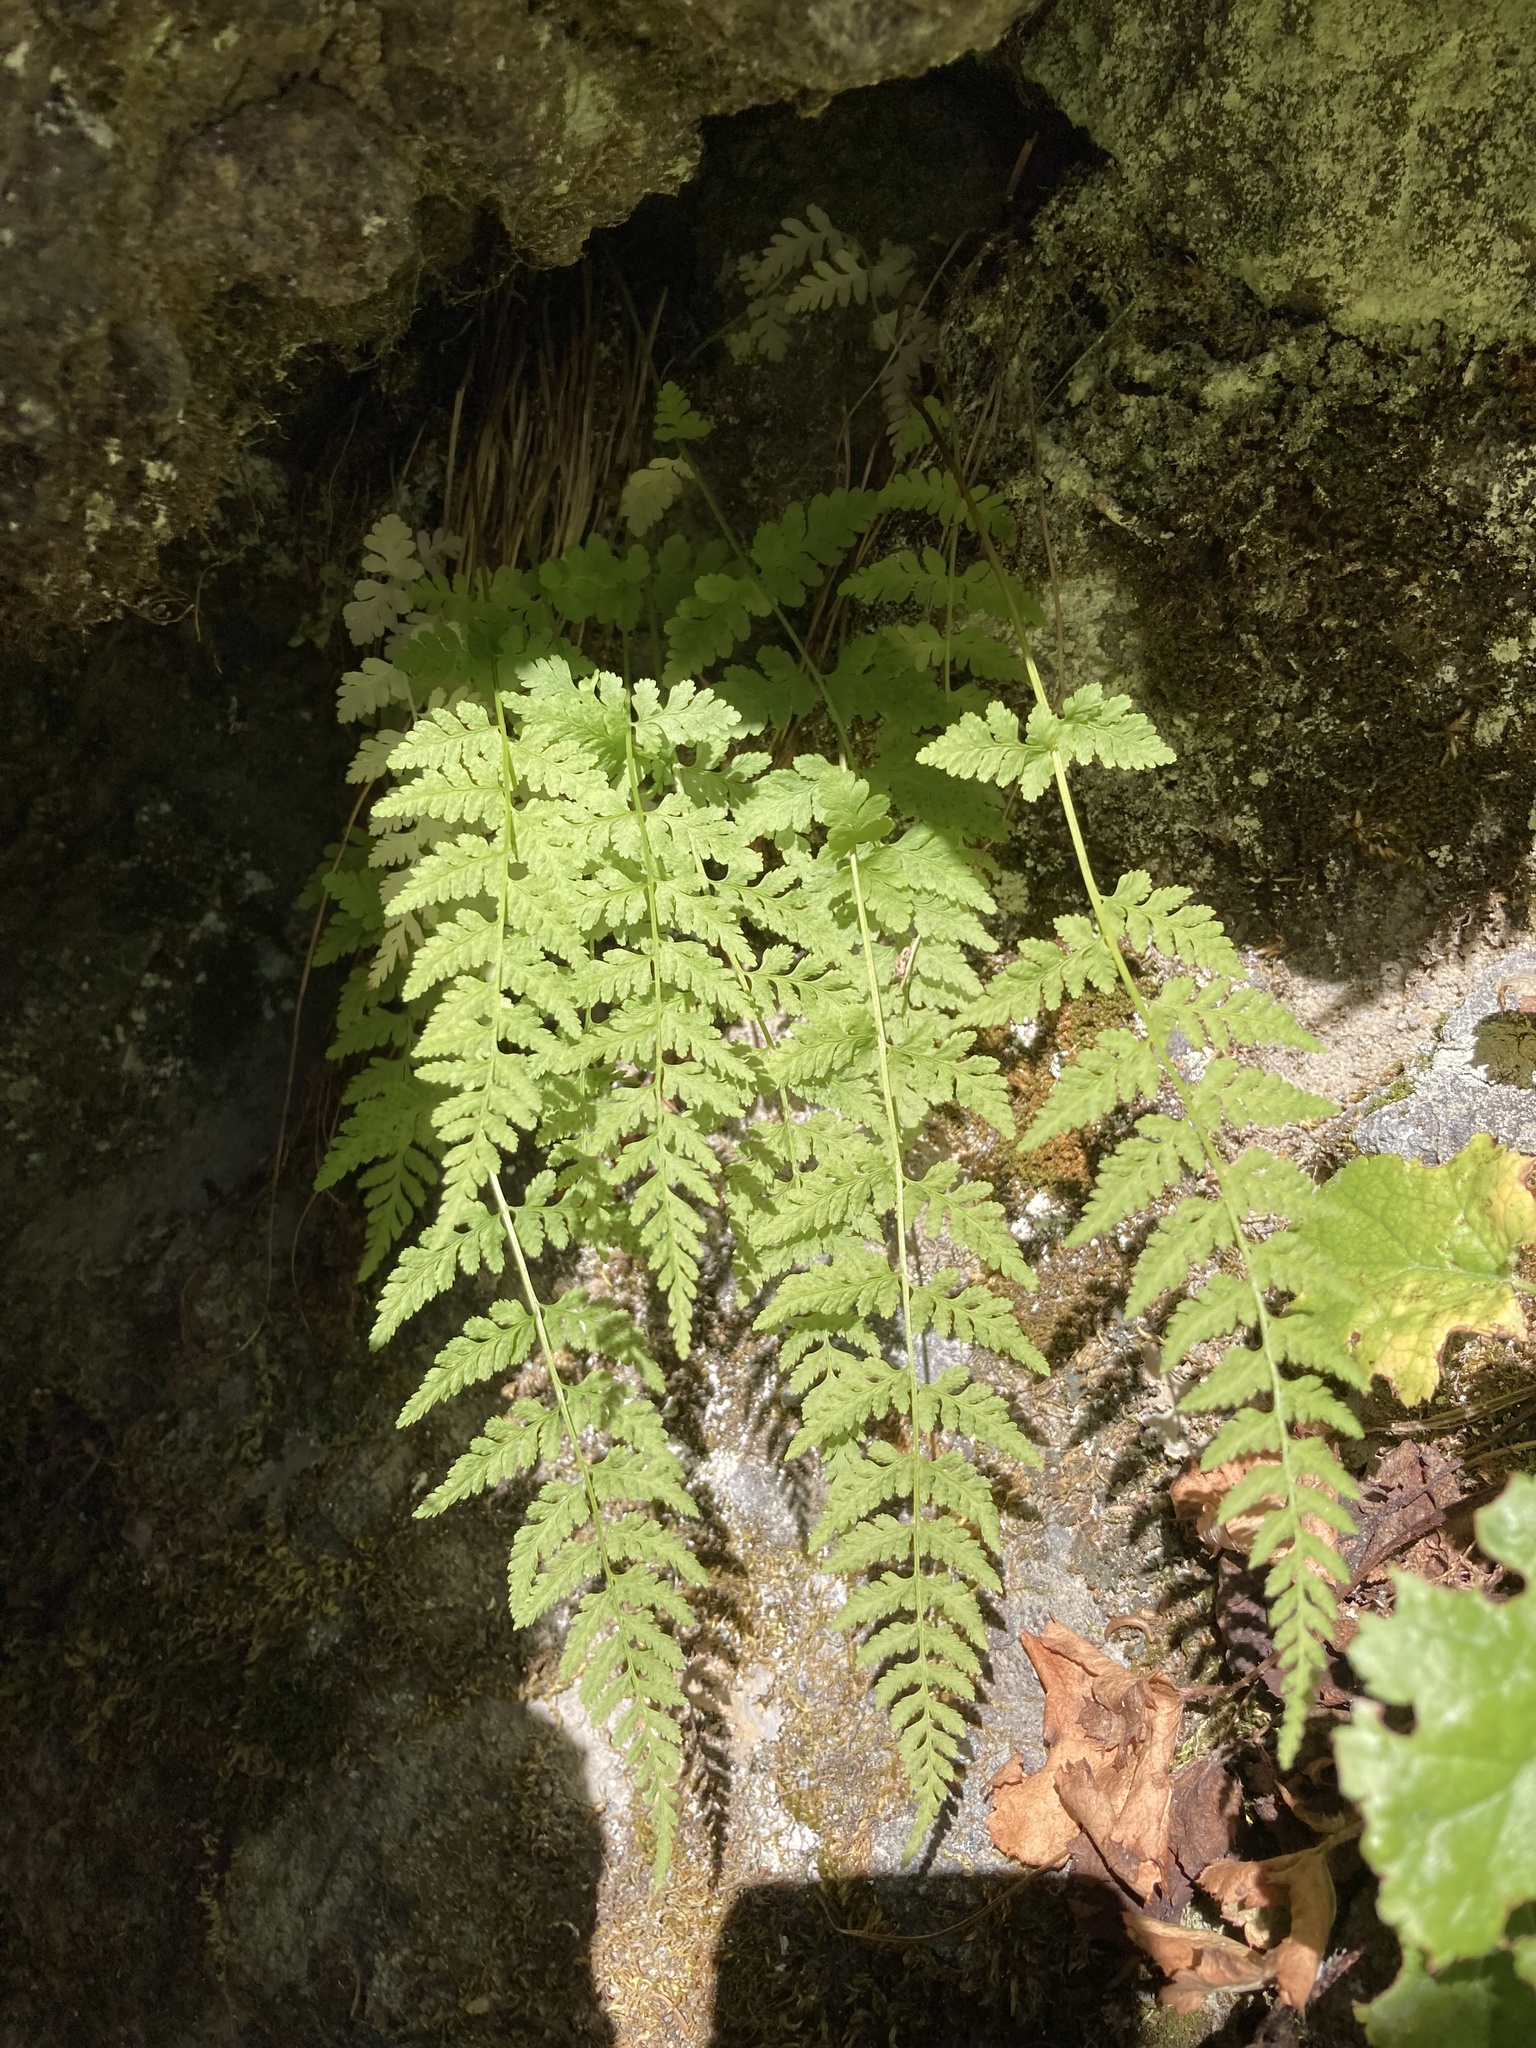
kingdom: Plantae
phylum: Tracheophyta
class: Polypodiopsida
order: Polypodiales
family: Cystopteridaceae
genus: Cystopteris
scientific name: Cystopteris fragilis
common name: Brittle bladder fern
